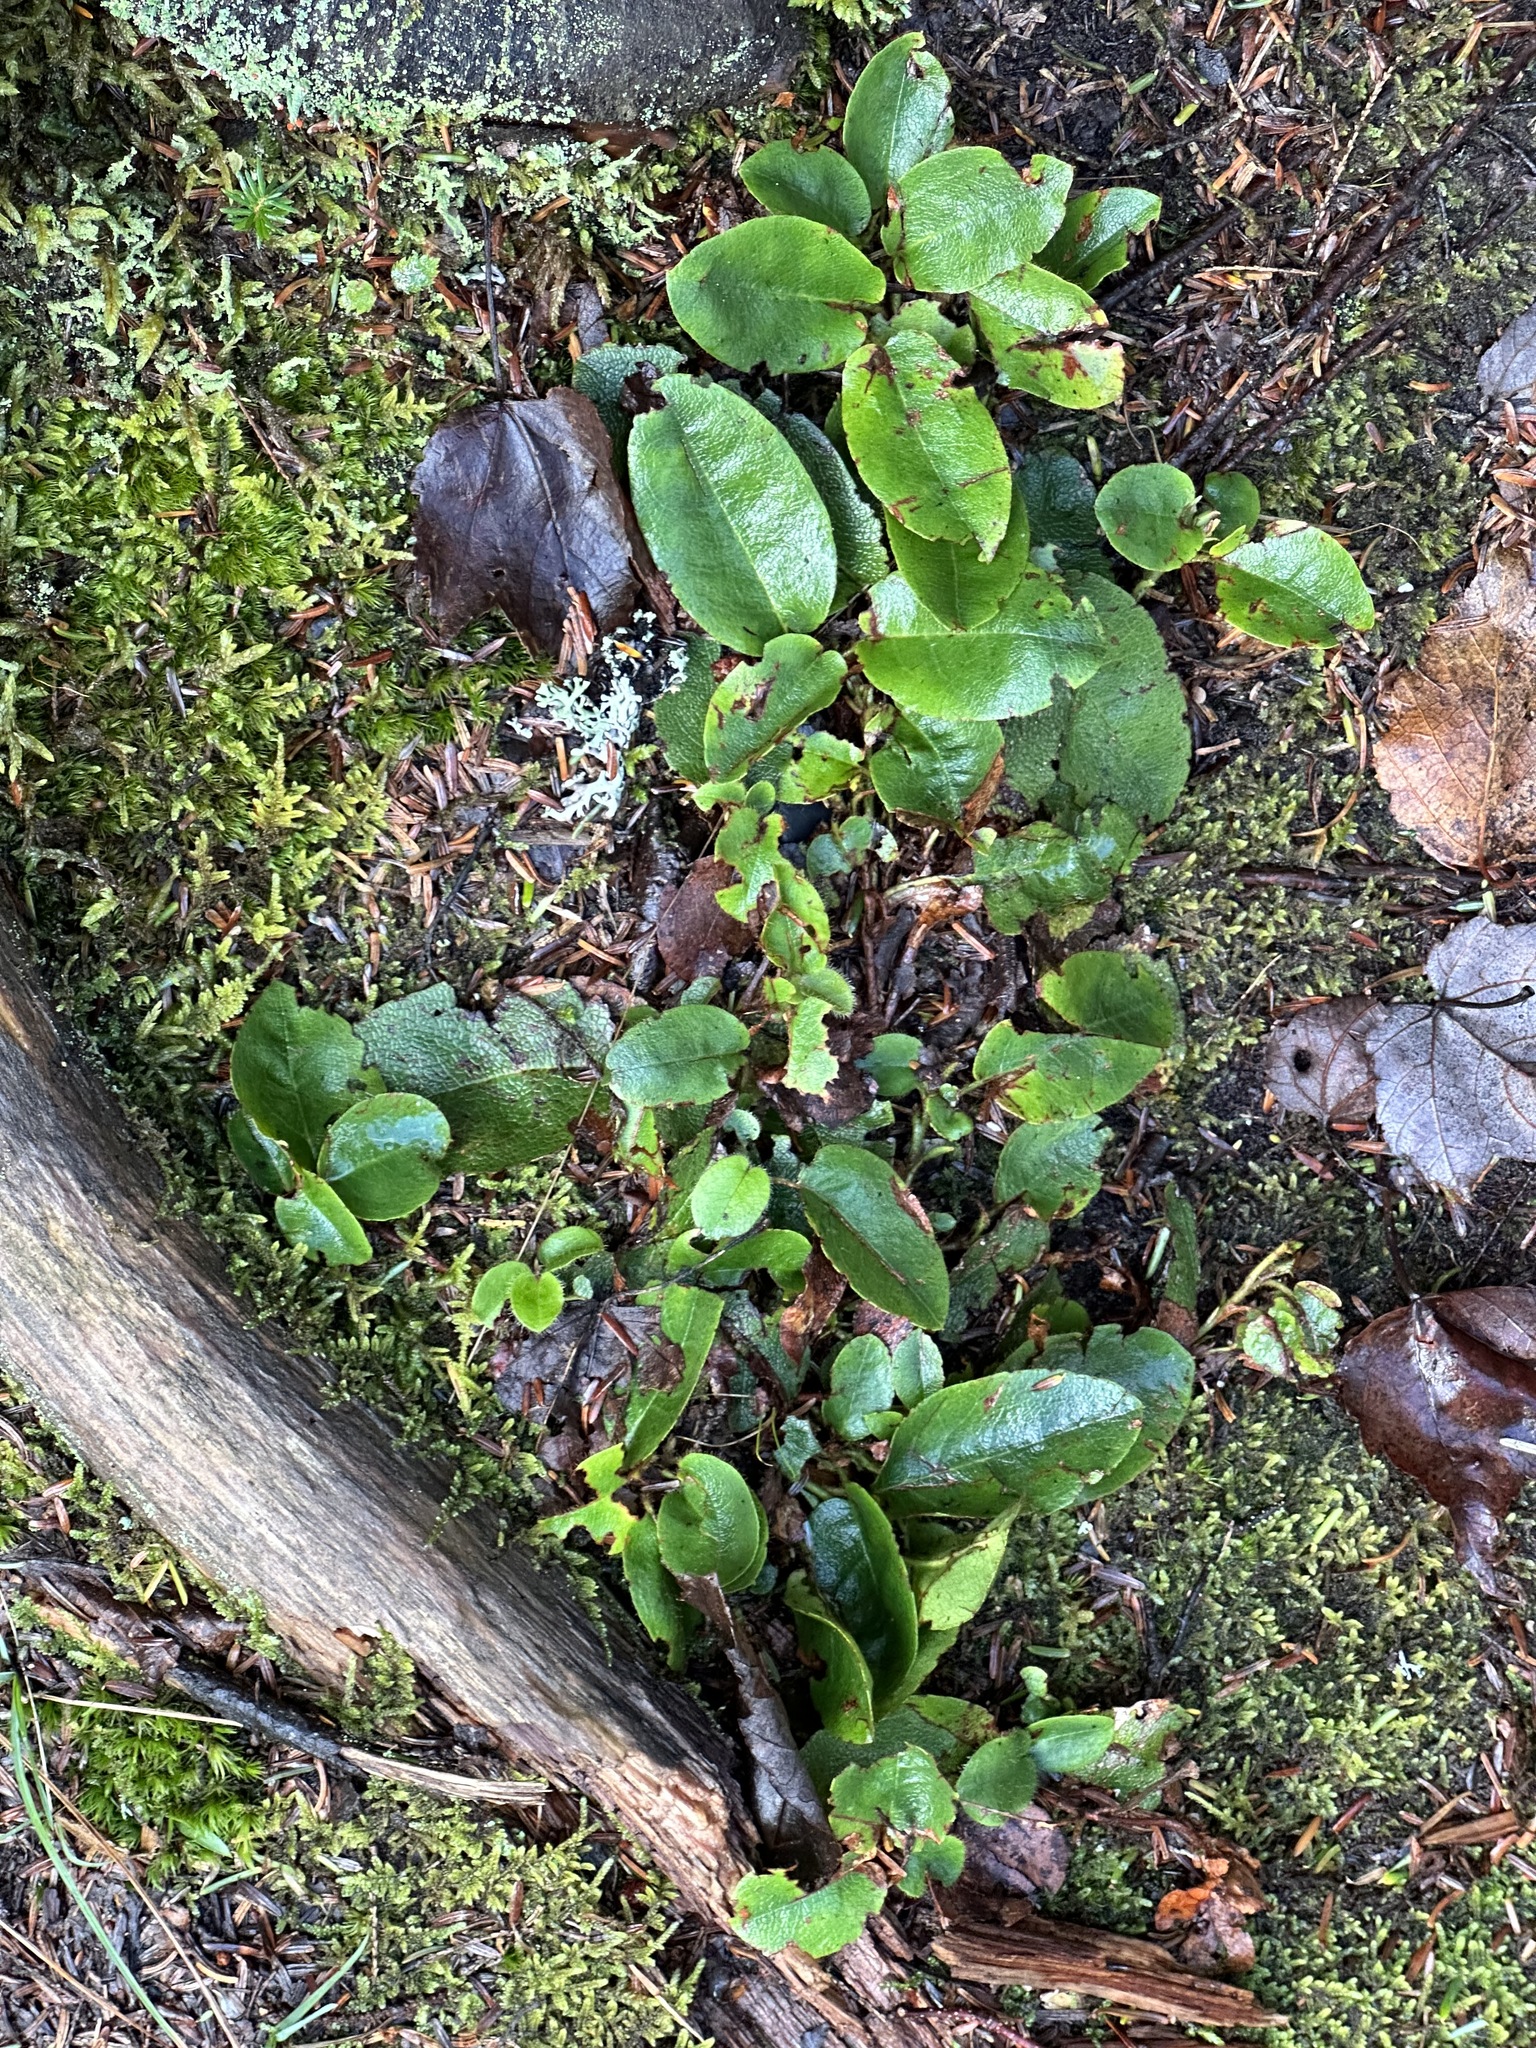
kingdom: Plantae
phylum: Tracheophyta
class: Magnoliopsida
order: Ericales
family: Ericaceae
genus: Epigaea
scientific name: Epigaea repens
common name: Gravelroot
